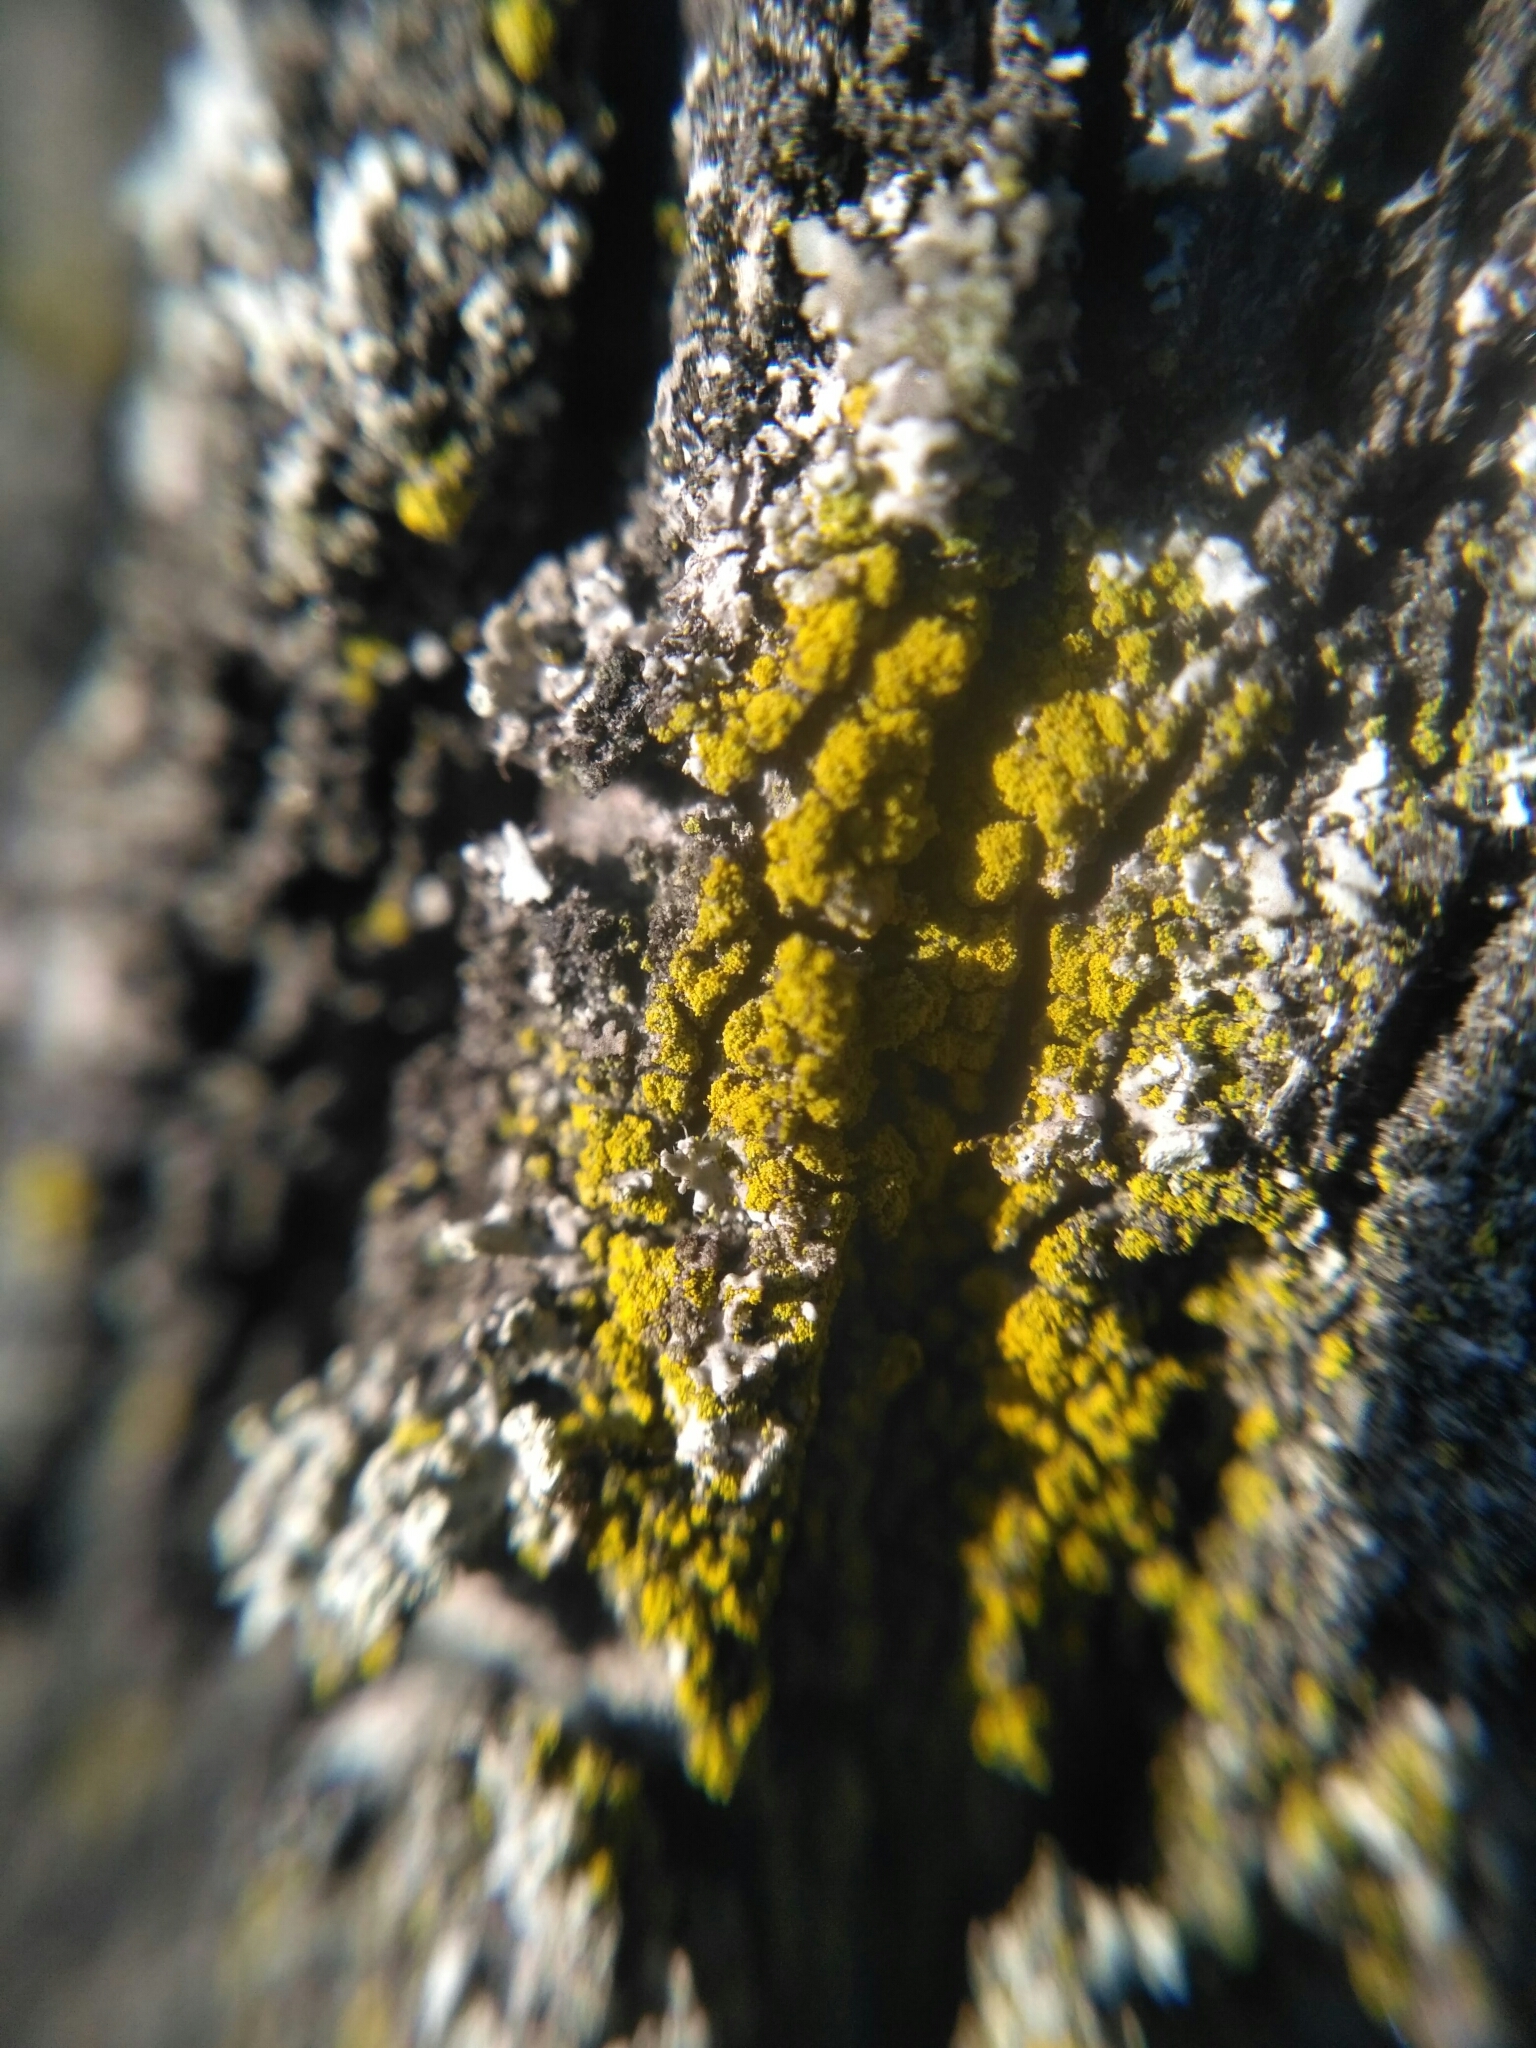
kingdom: Fungi
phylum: Ascomycota
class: Candelariomycetes
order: Candelariales
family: Candelariaceae
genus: Candelariella
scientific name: Candelariella efflorescens
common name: Powdery goldspeck
